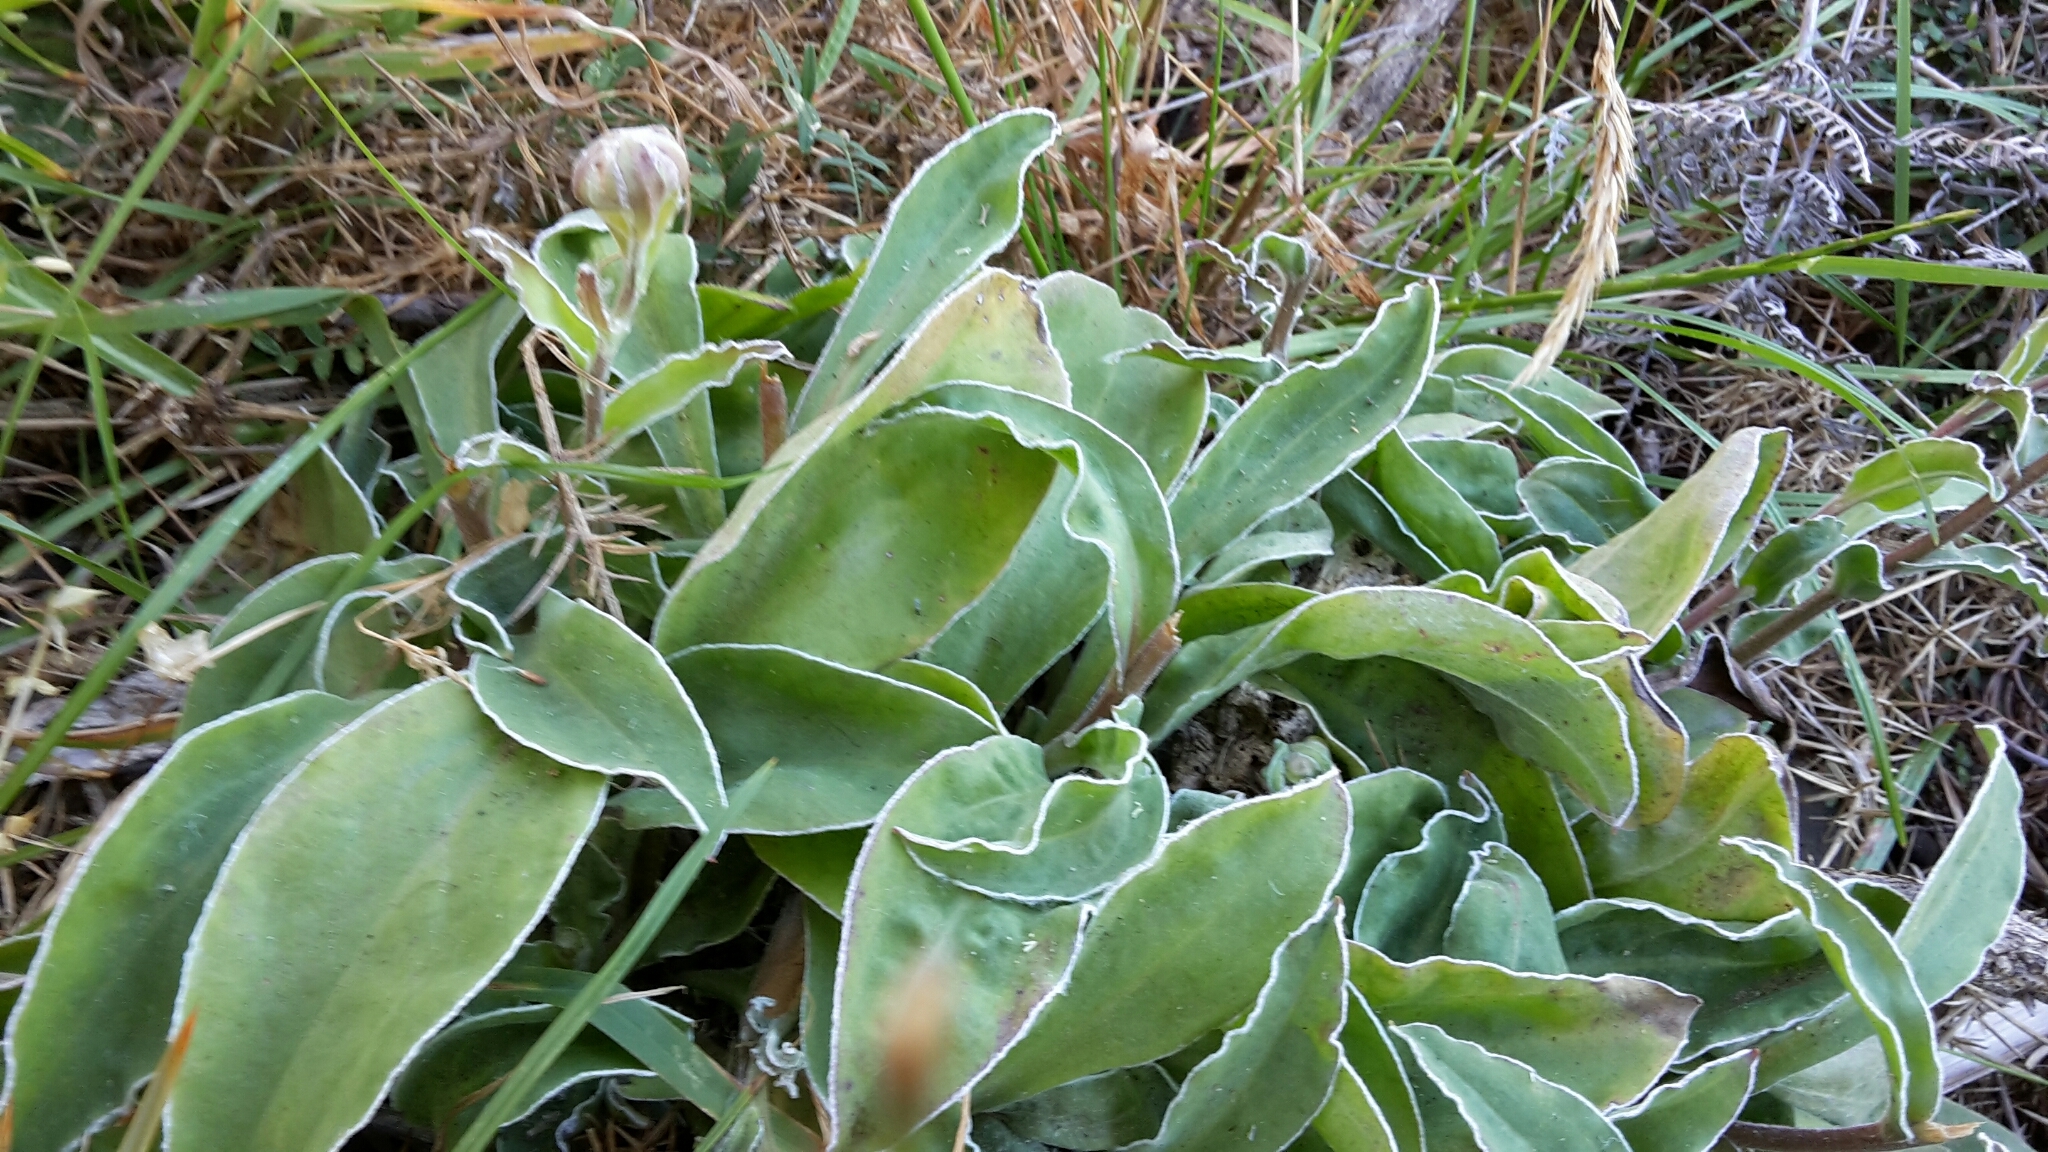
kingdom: Plantae
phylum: Tracheophyta
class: Magnoliopsida
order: Asterales
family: Asteraceae
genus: Craspedia
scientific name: Craspedia uniflora
